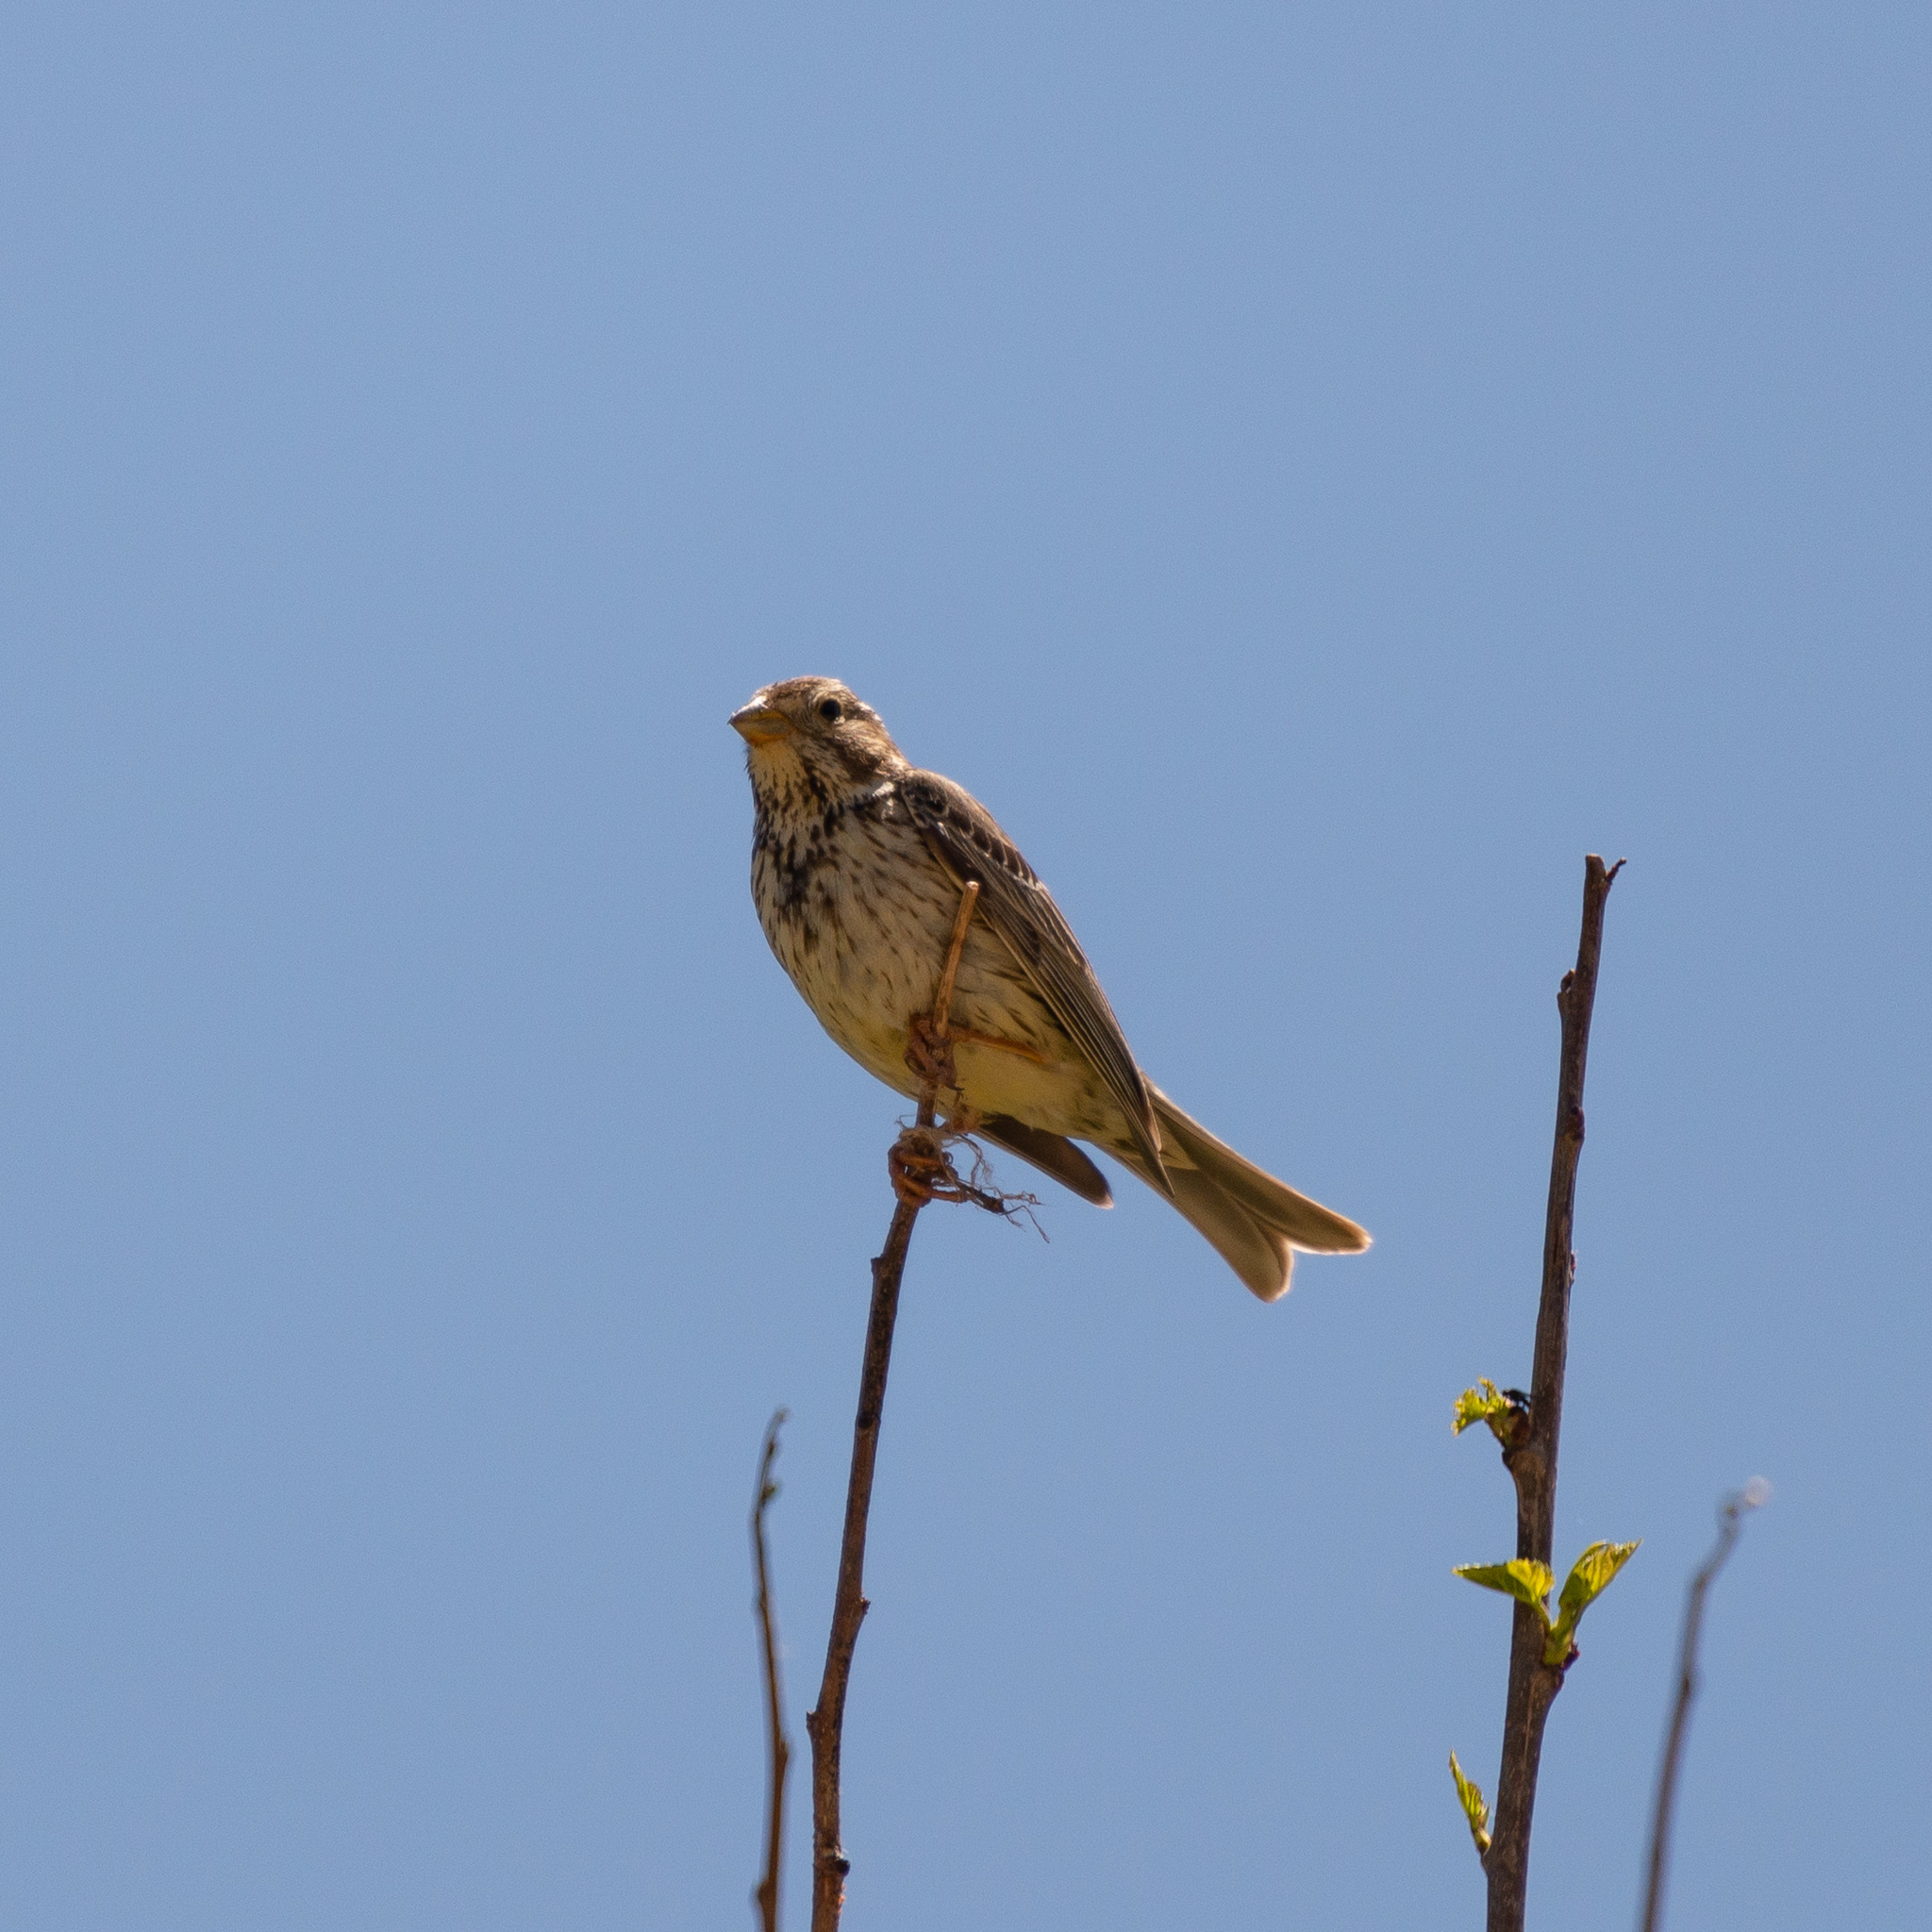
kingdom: Animalia
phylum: Chordata
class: Aves
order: Passeriformes
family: Emberizidae
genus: Emberiza
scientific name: Emberiza calandra
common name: Corn bunting
